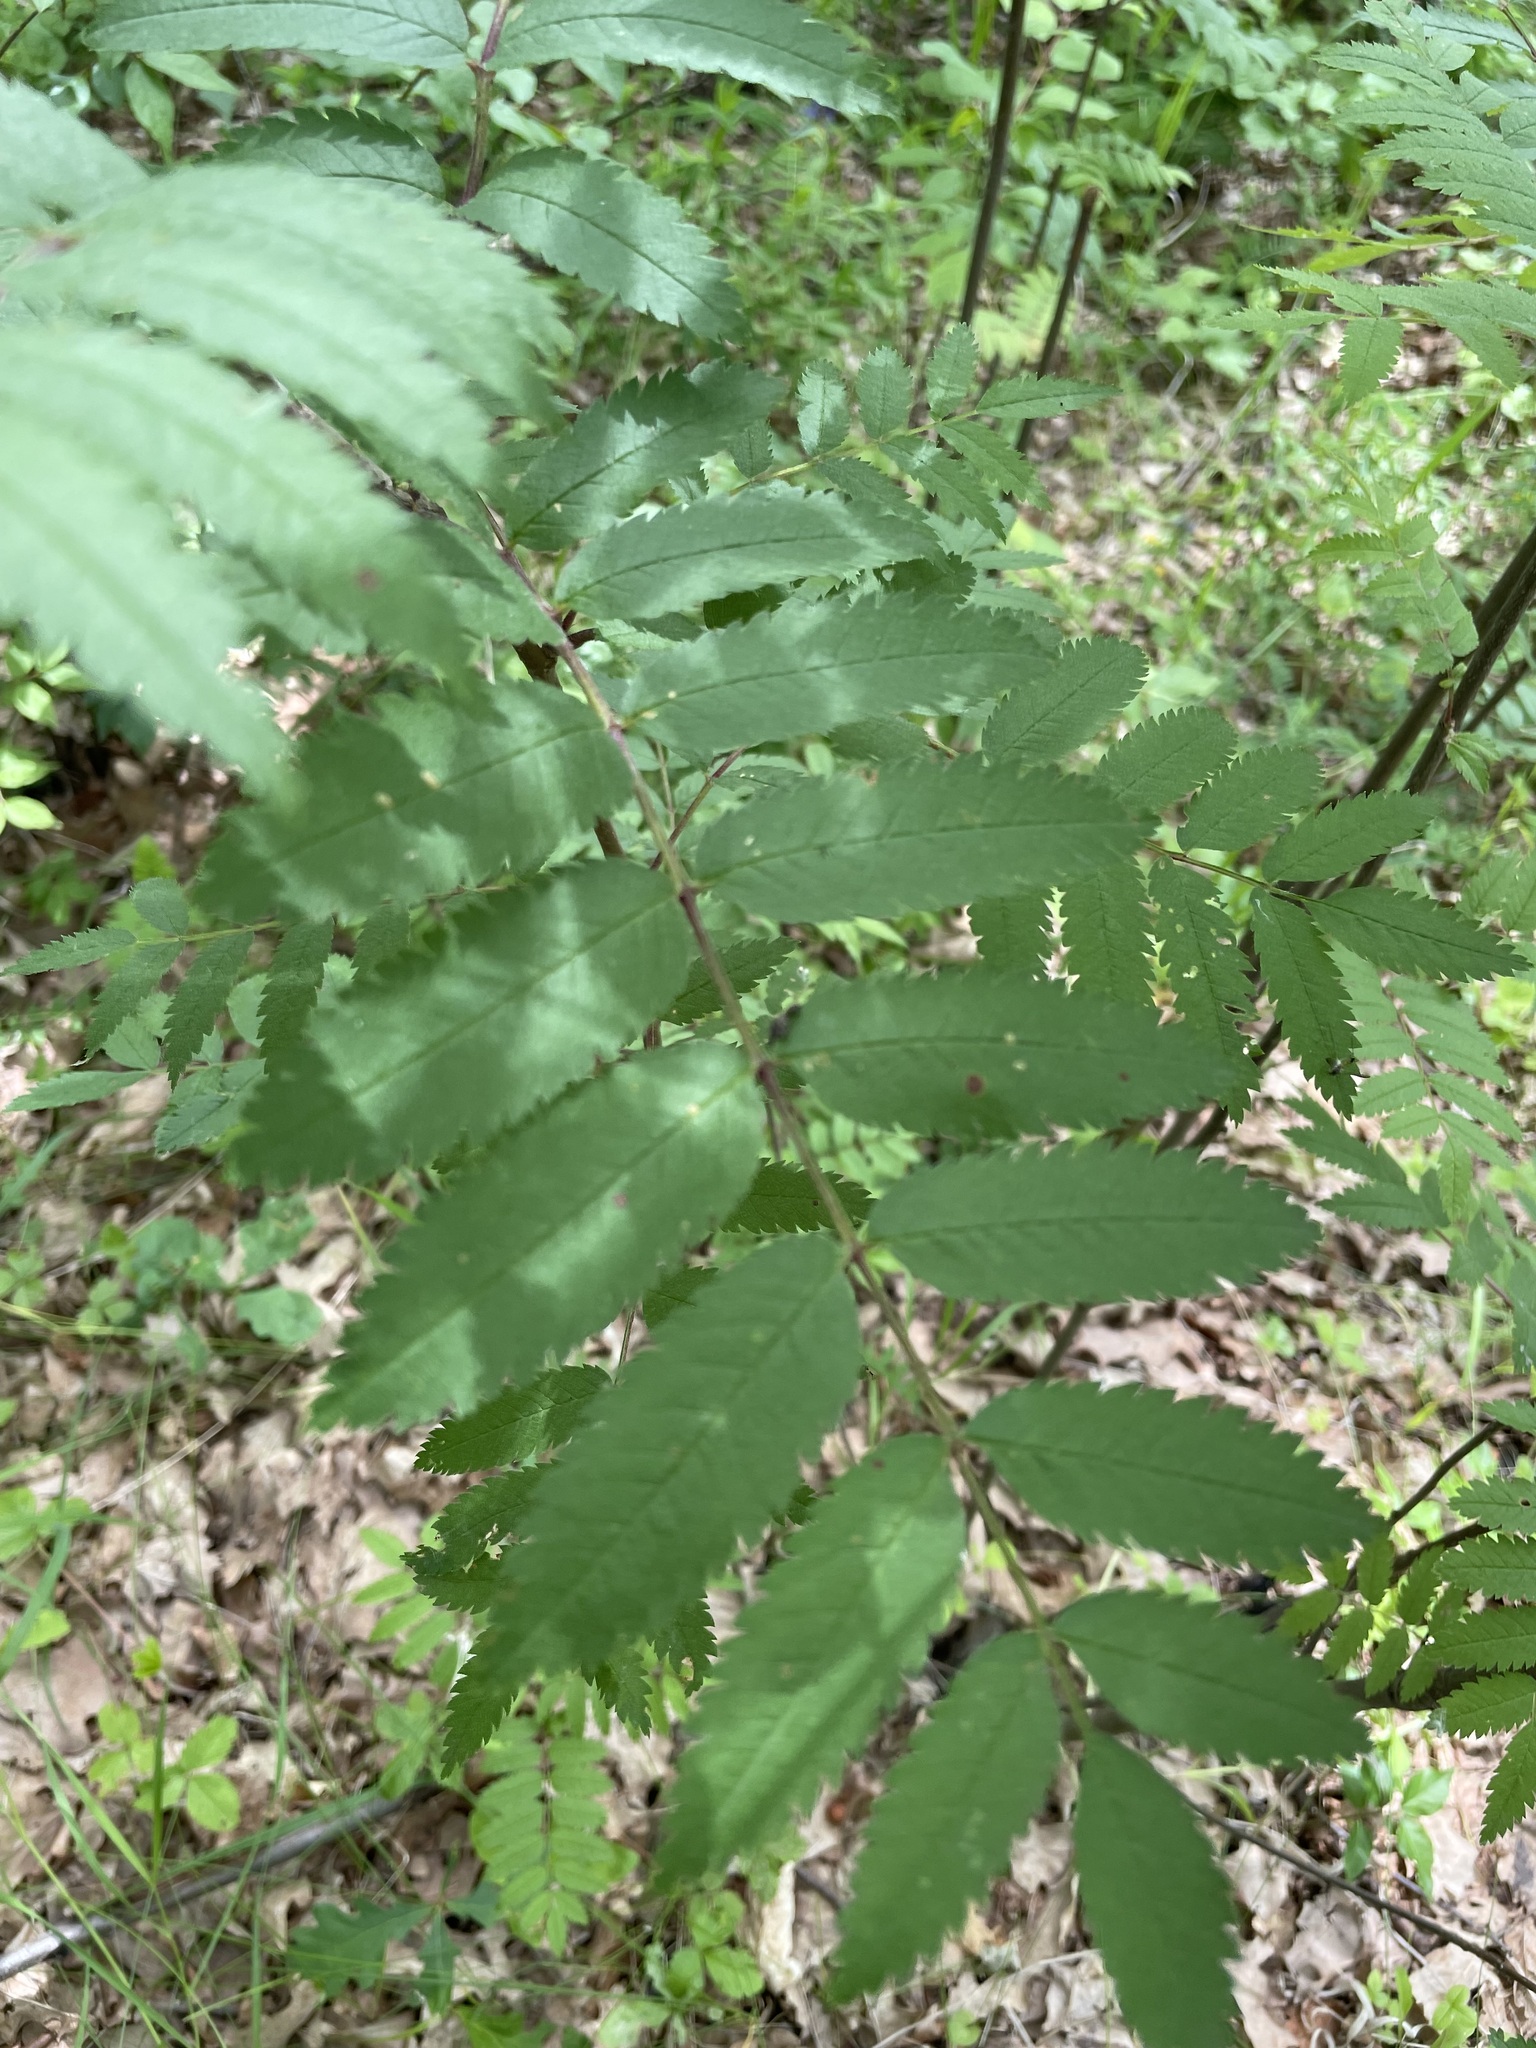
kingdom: Plantae
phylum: Tracheophyta
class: Magnoliopsida
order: Rosales
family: Rosaceae
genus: Sorbus
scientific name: Sorbus aucuparia
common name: Rowan
